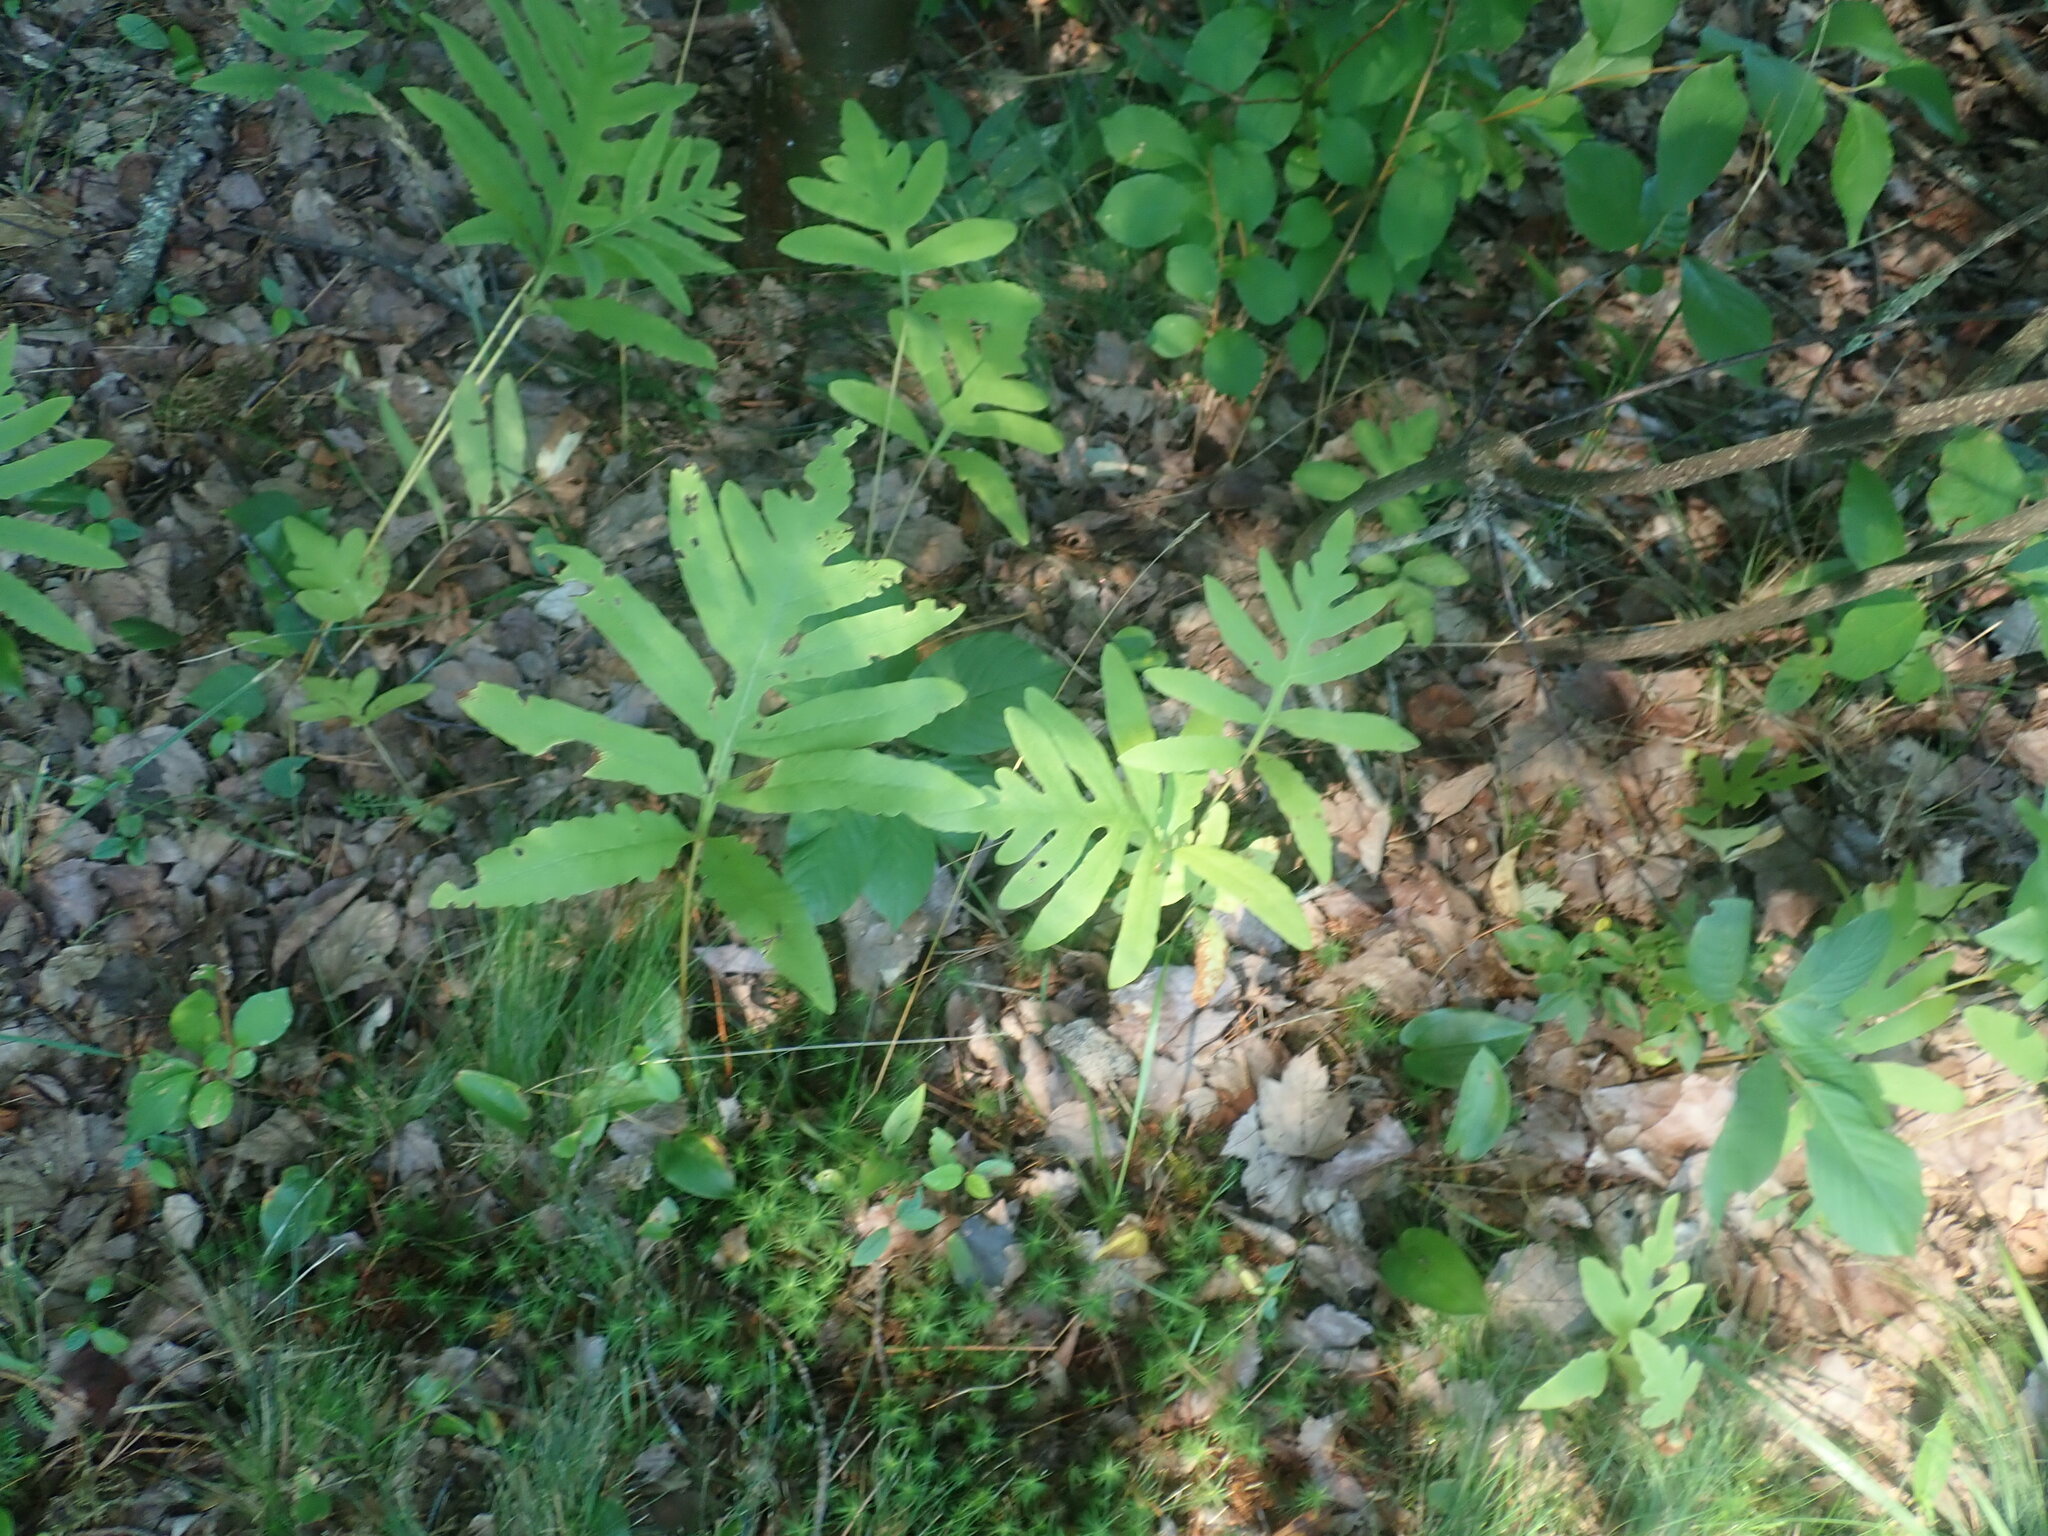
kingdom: Plantae
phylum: Tracheophyta
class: Polypodiopsida
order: Polypodiales
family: Onocleaceae
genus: Onoclea
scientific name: Onoclea sensibilis
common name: Sensitive fern
